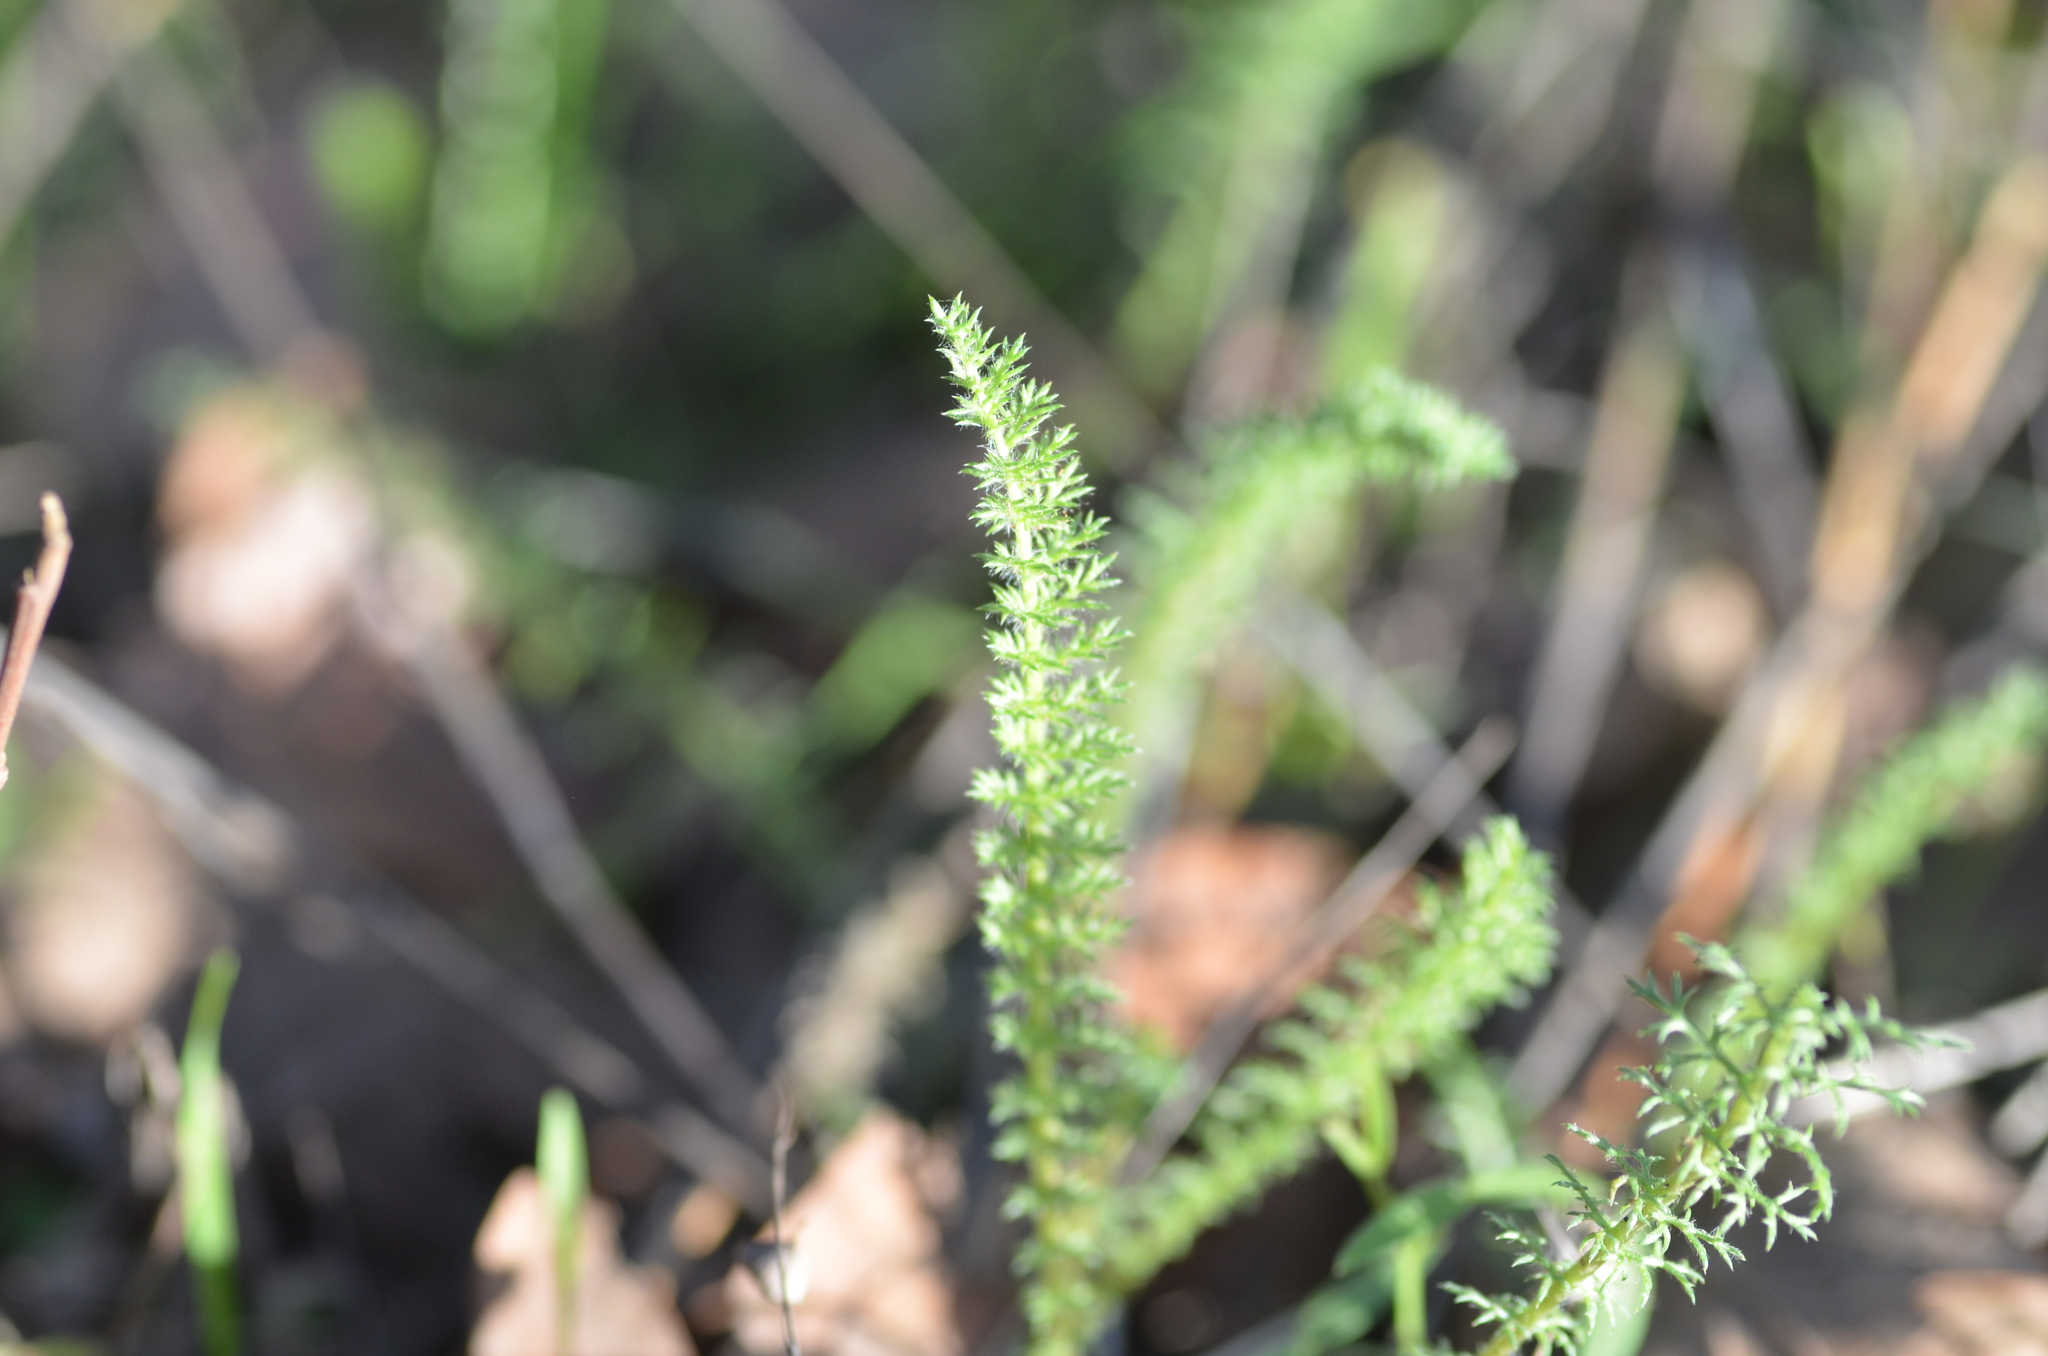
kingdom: Plantae
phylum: Tracheophyta
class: Magnoliopsida
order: Asterales
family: Asteraceae
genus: Achillea
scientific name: Achillea millefolium
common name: Yarrow
